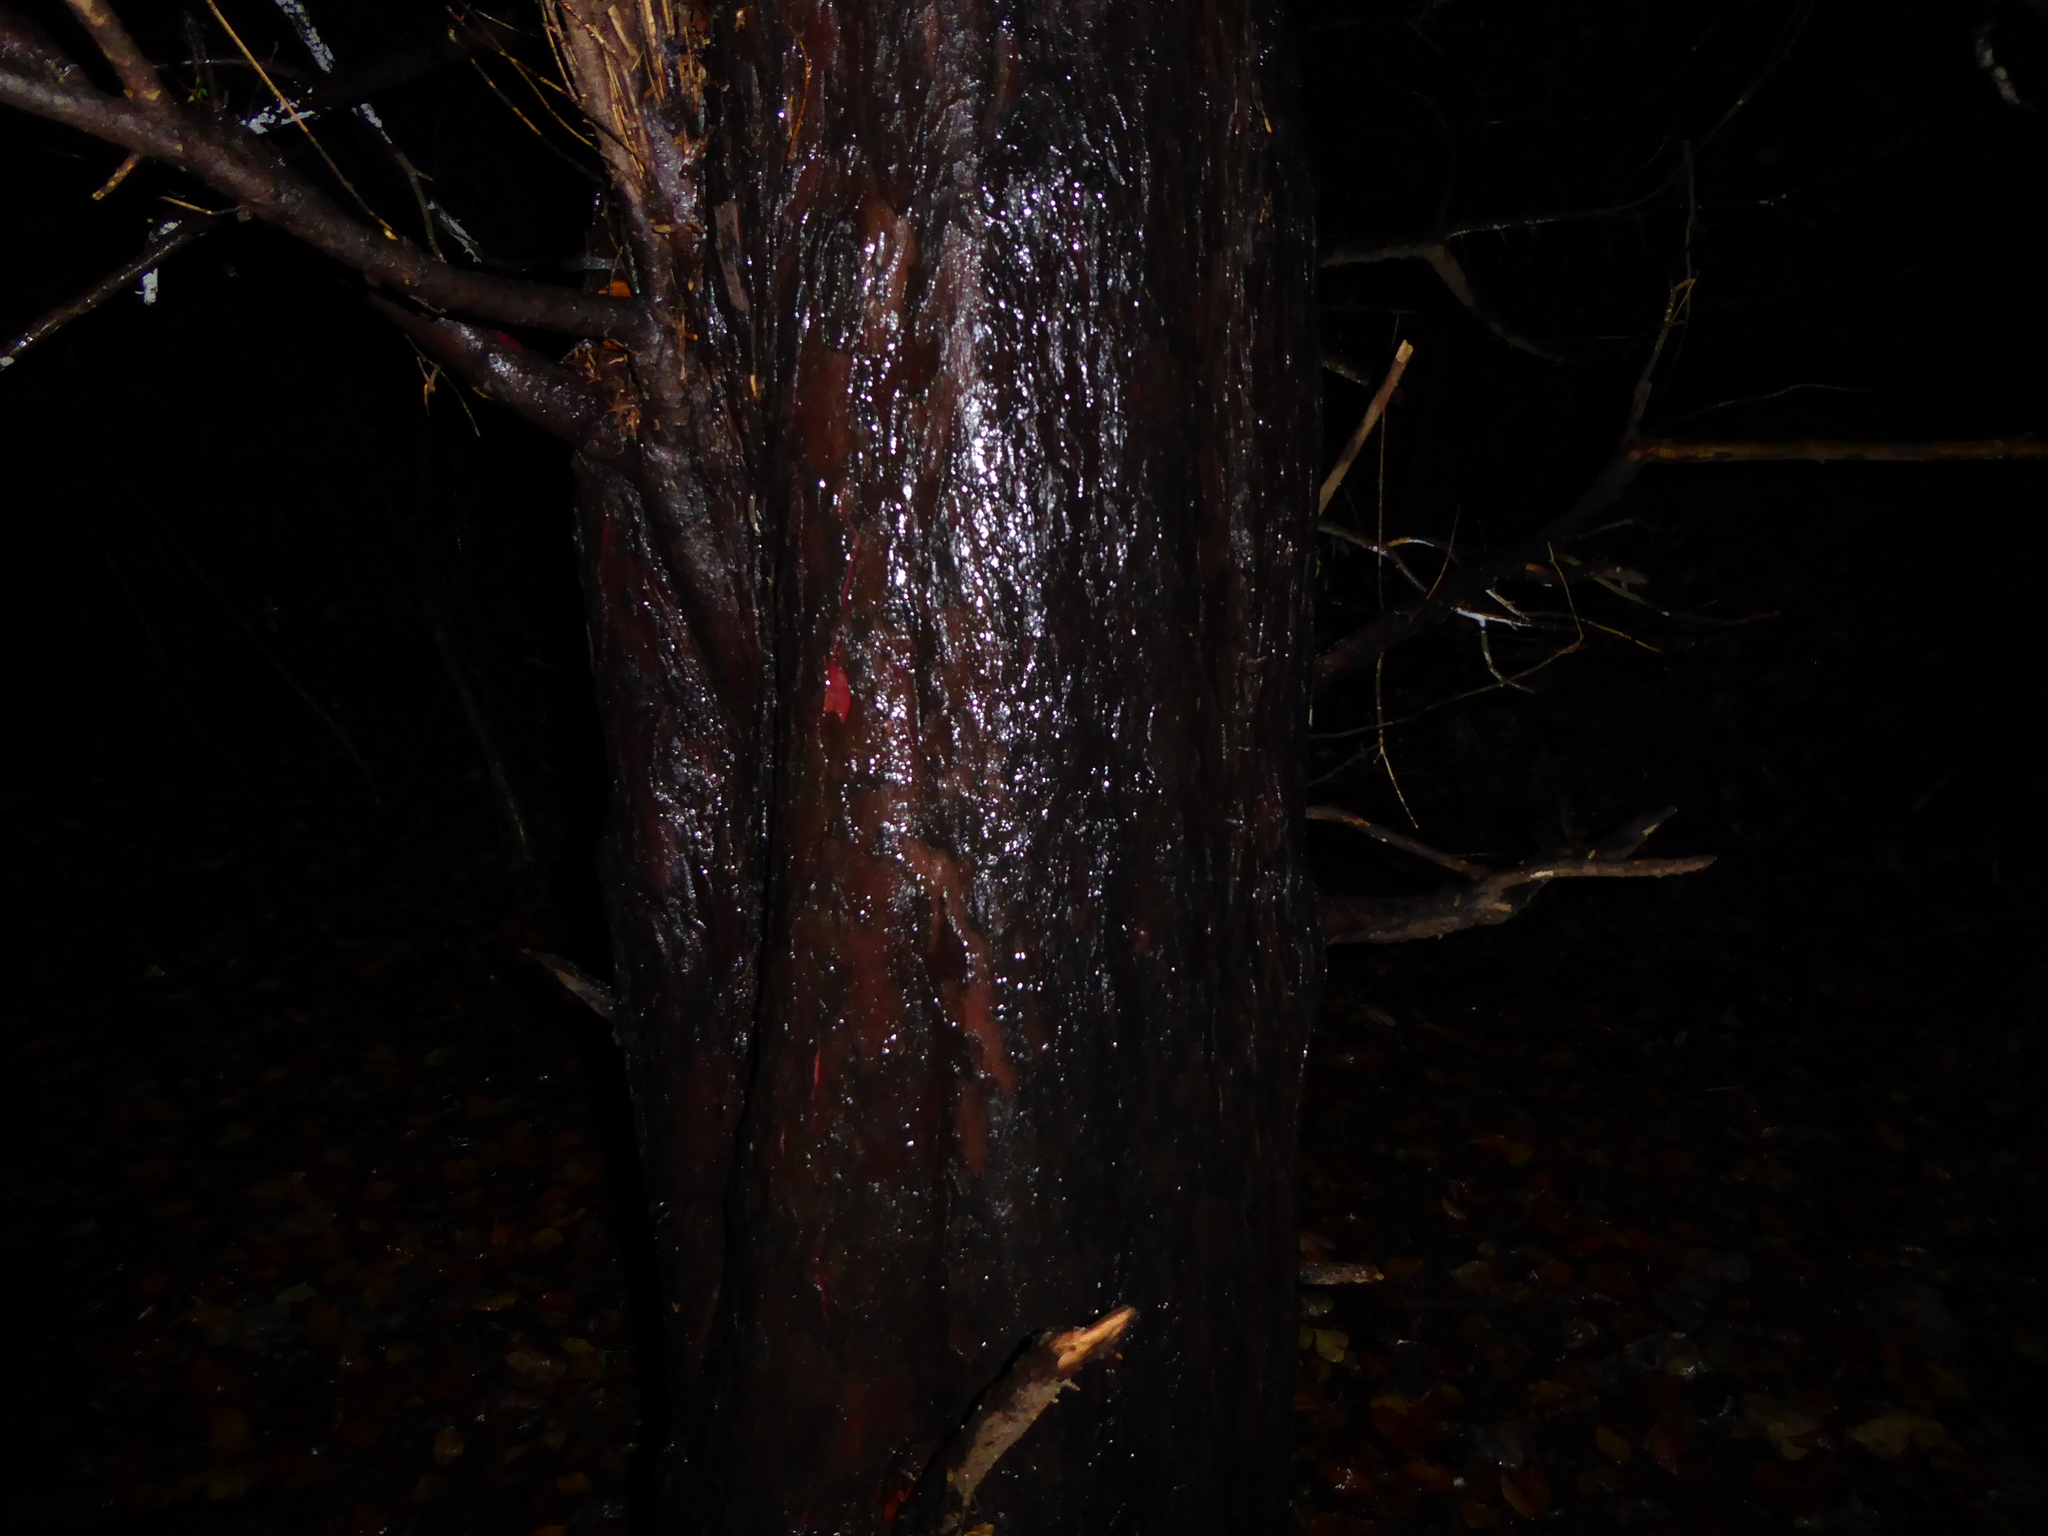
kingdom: Plantae
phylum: Tracheophyta
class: Pinopsida
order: Pinales
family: Taxaceae
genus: Taxus
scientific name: Taxus baccata
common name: Yew
